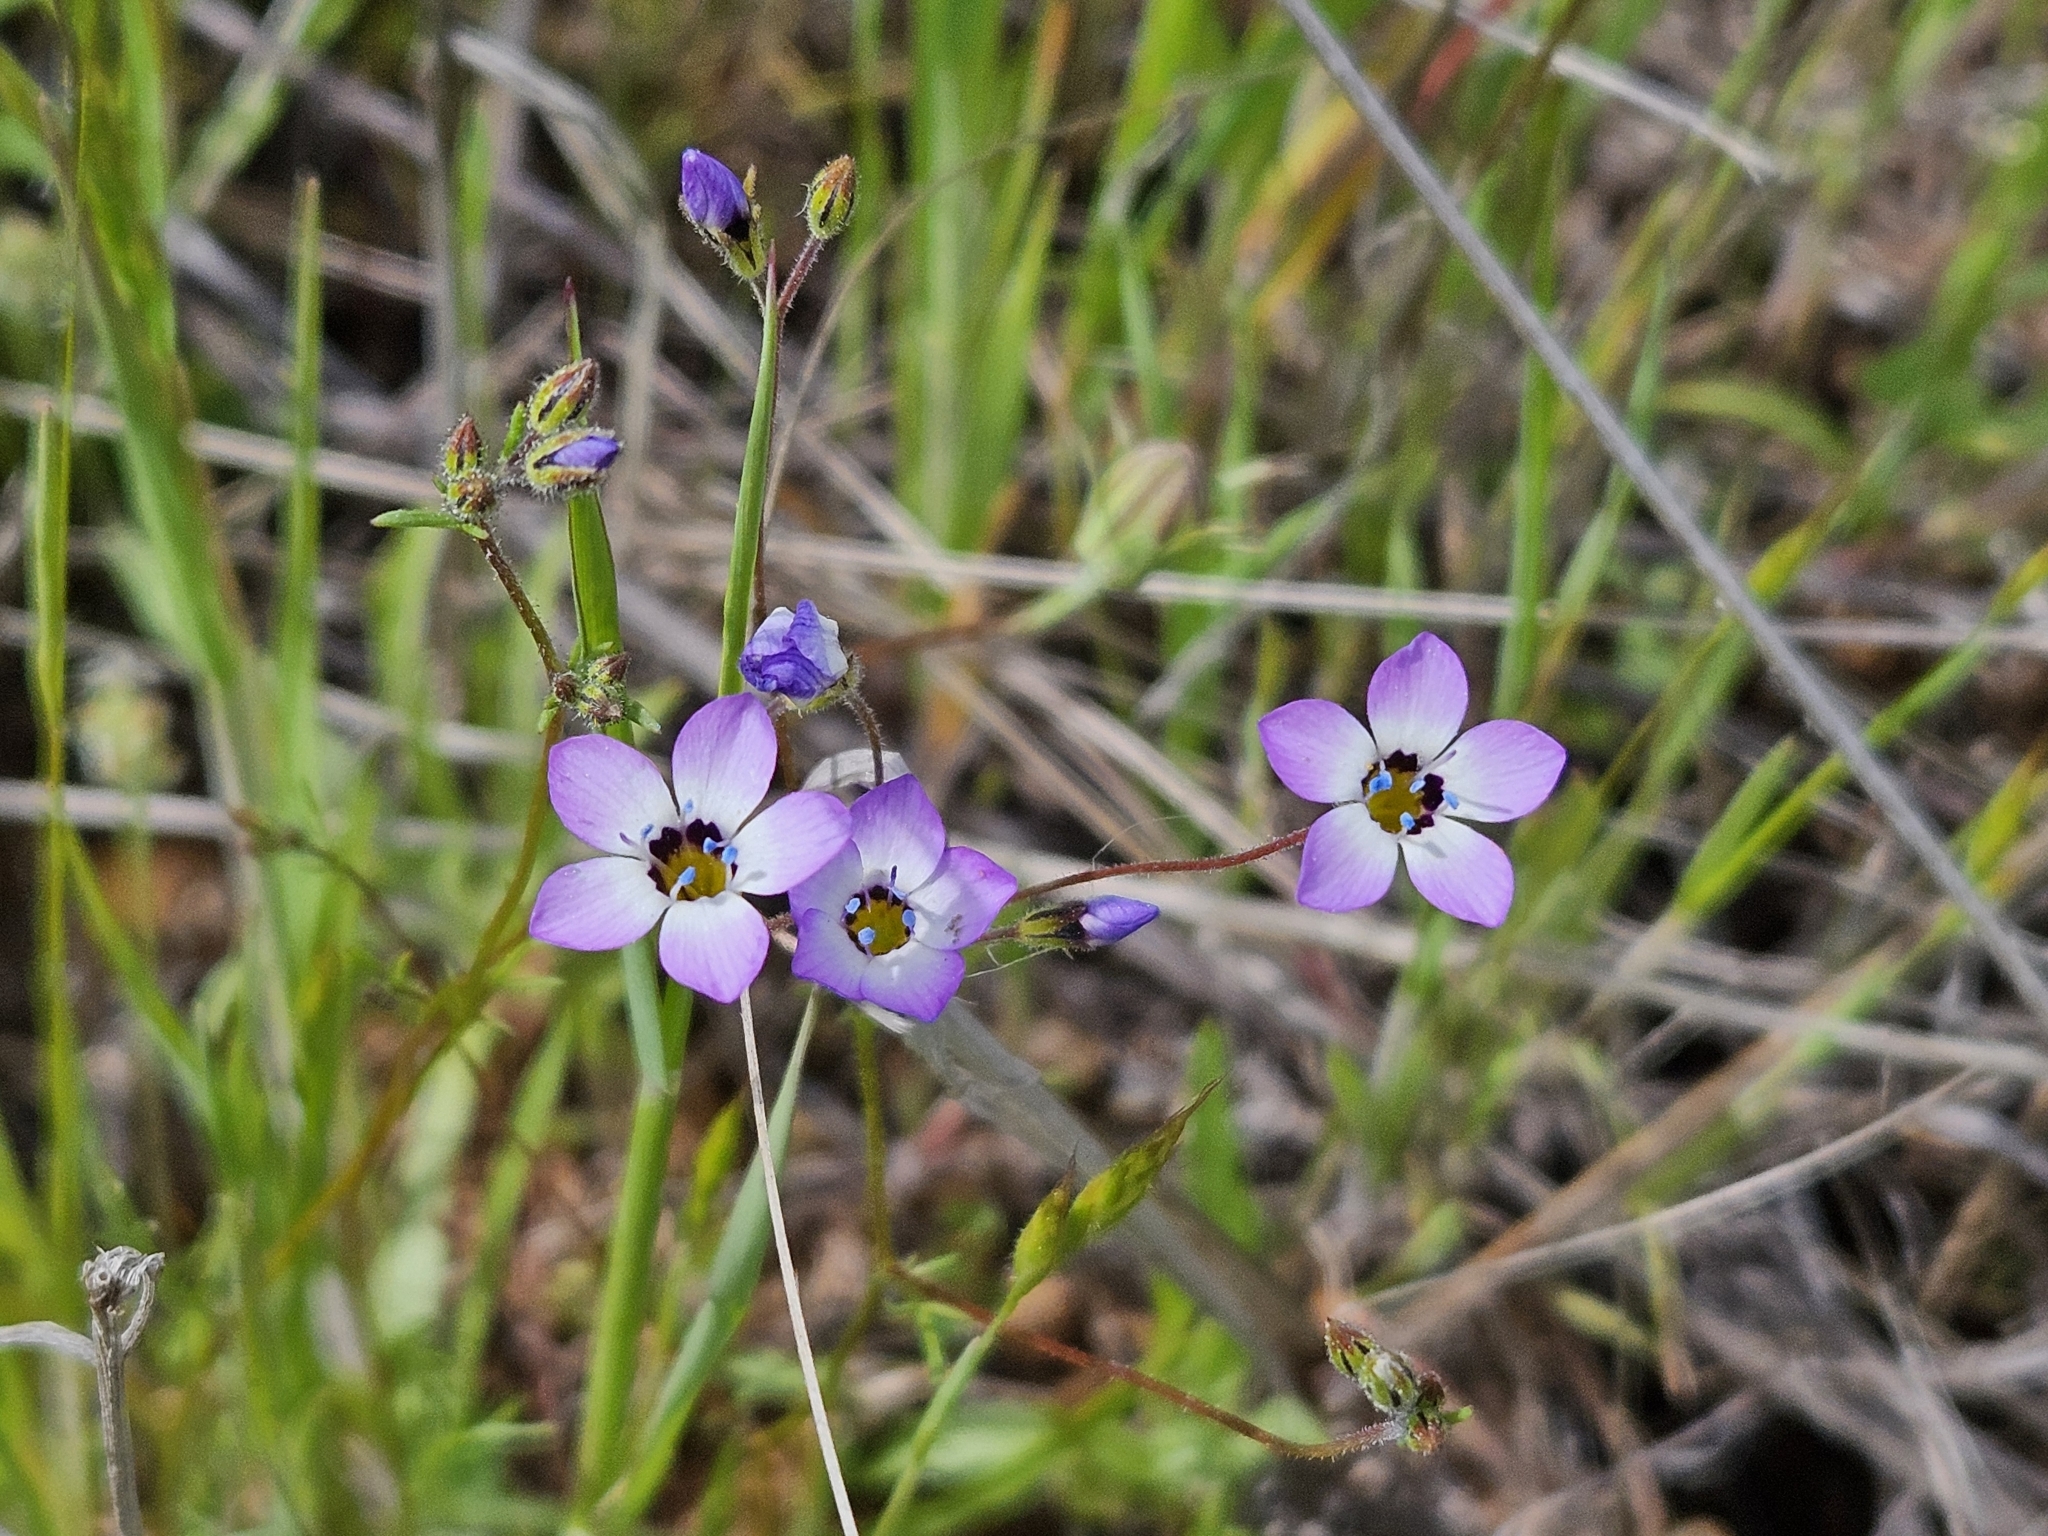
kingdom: Plantae
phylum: Tracheophyta
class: Magnoliopsida
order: Ericales
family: Polemoniaceae
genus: Gilia
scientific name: Gilia tricolor
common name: Bird's-eyes
